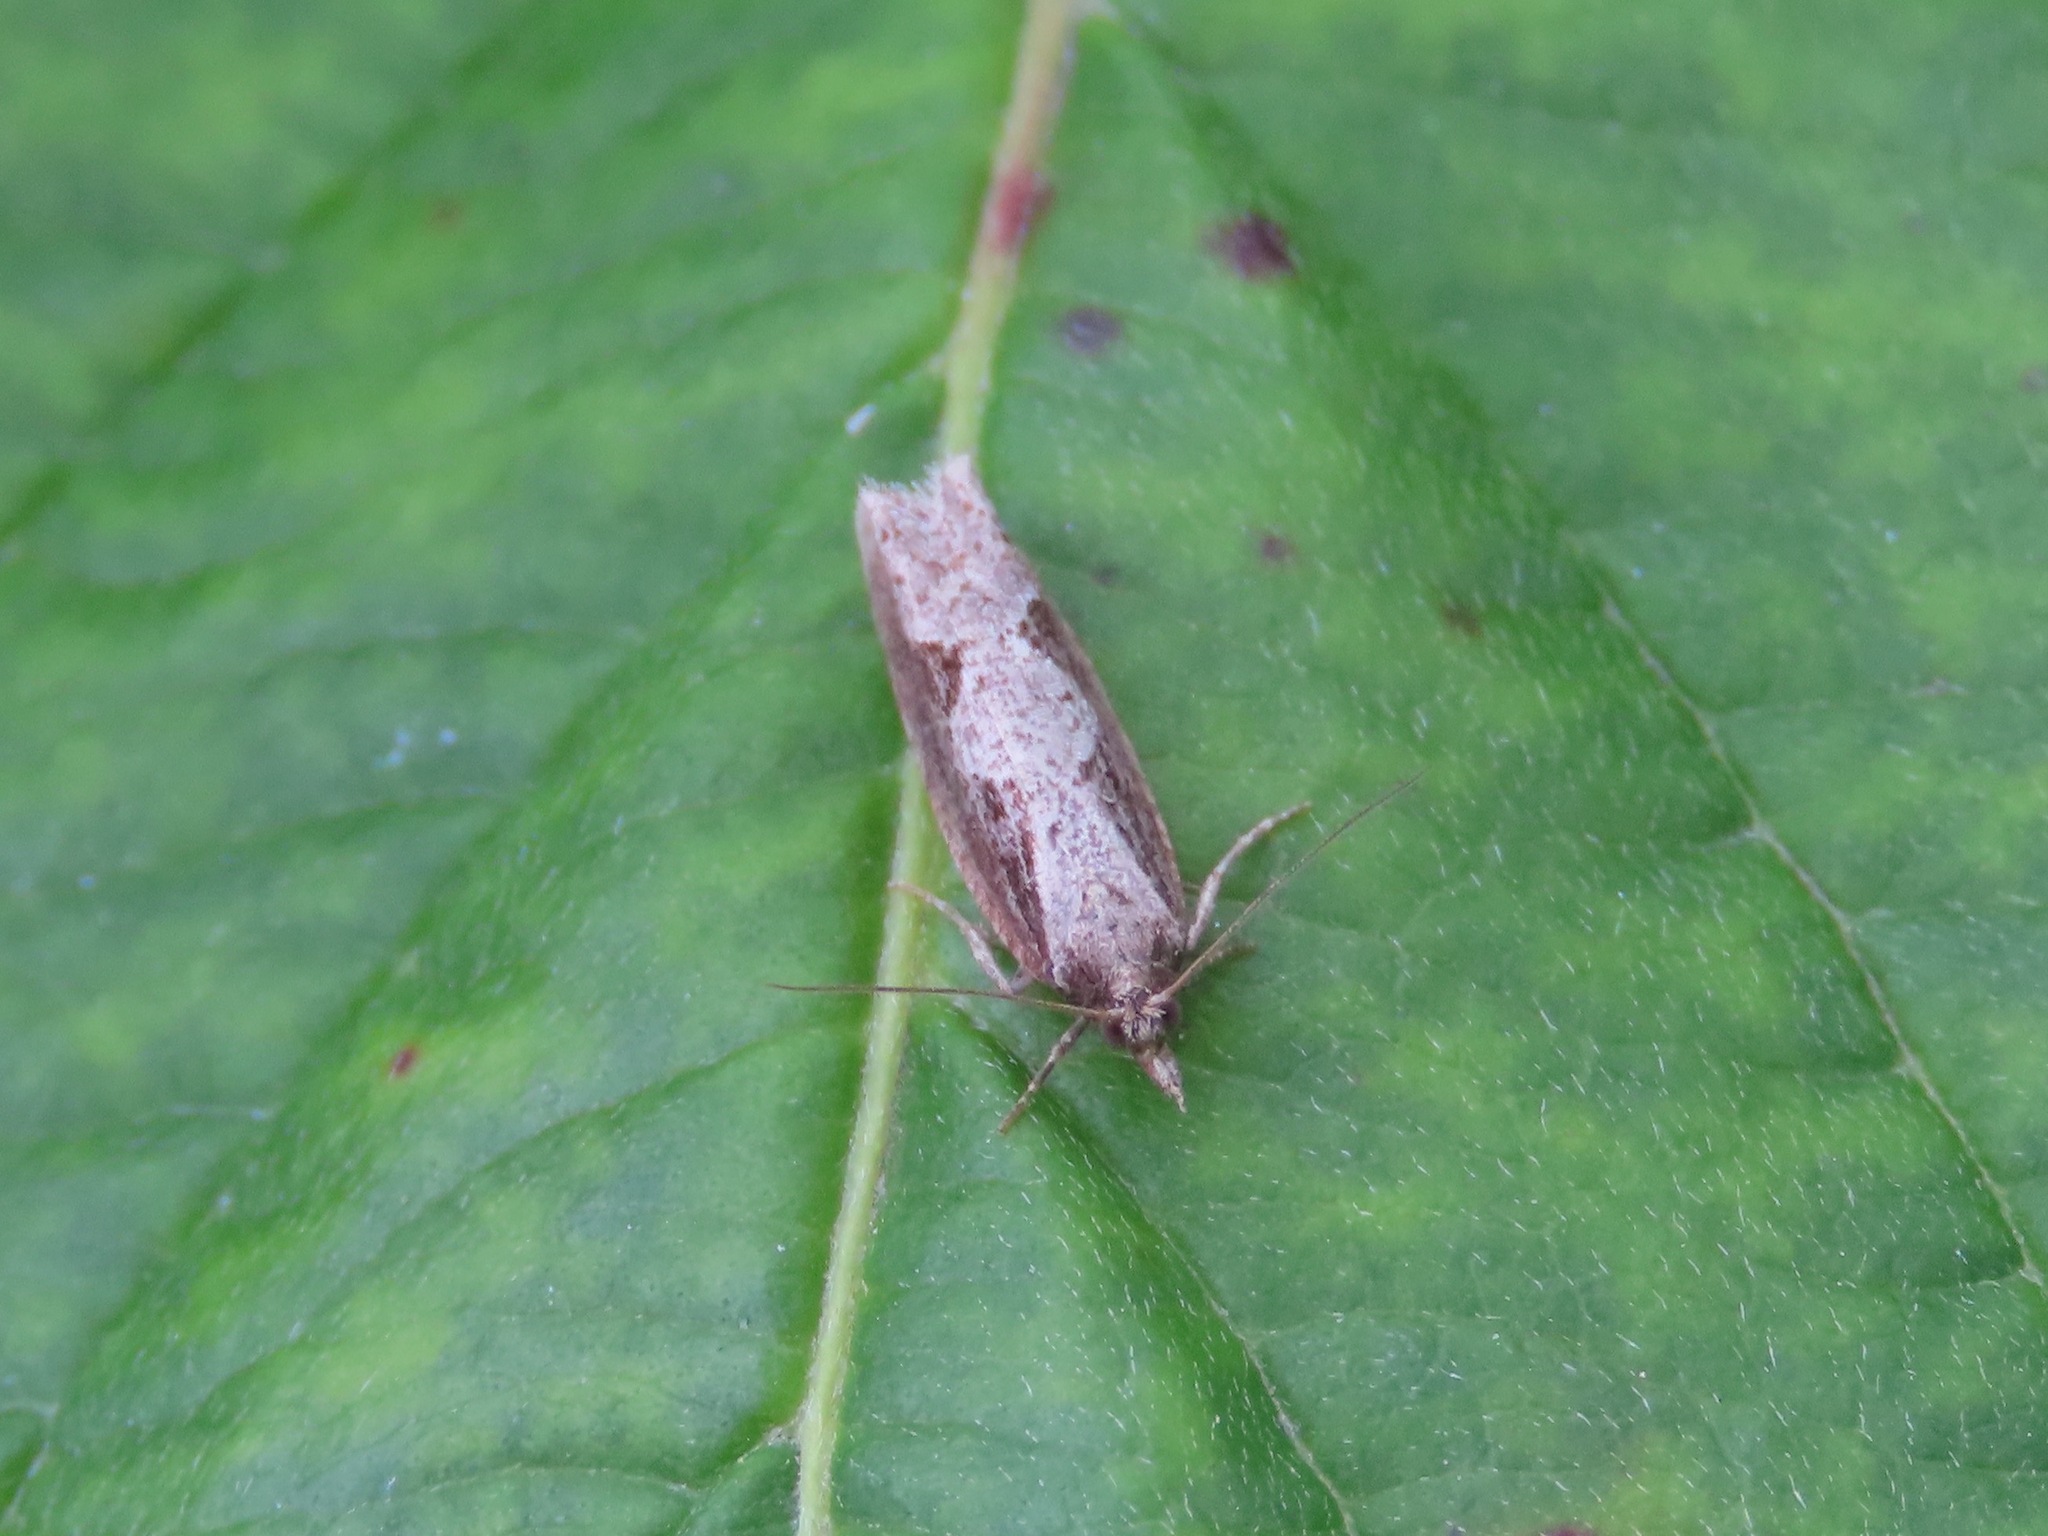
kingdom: Animalia
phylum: Arthropoda
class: Insecta
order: Lepidoptera
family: Tortricidae
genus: Epinotia
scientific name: Epinotia lindana
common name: Diamondback epinotia moth
